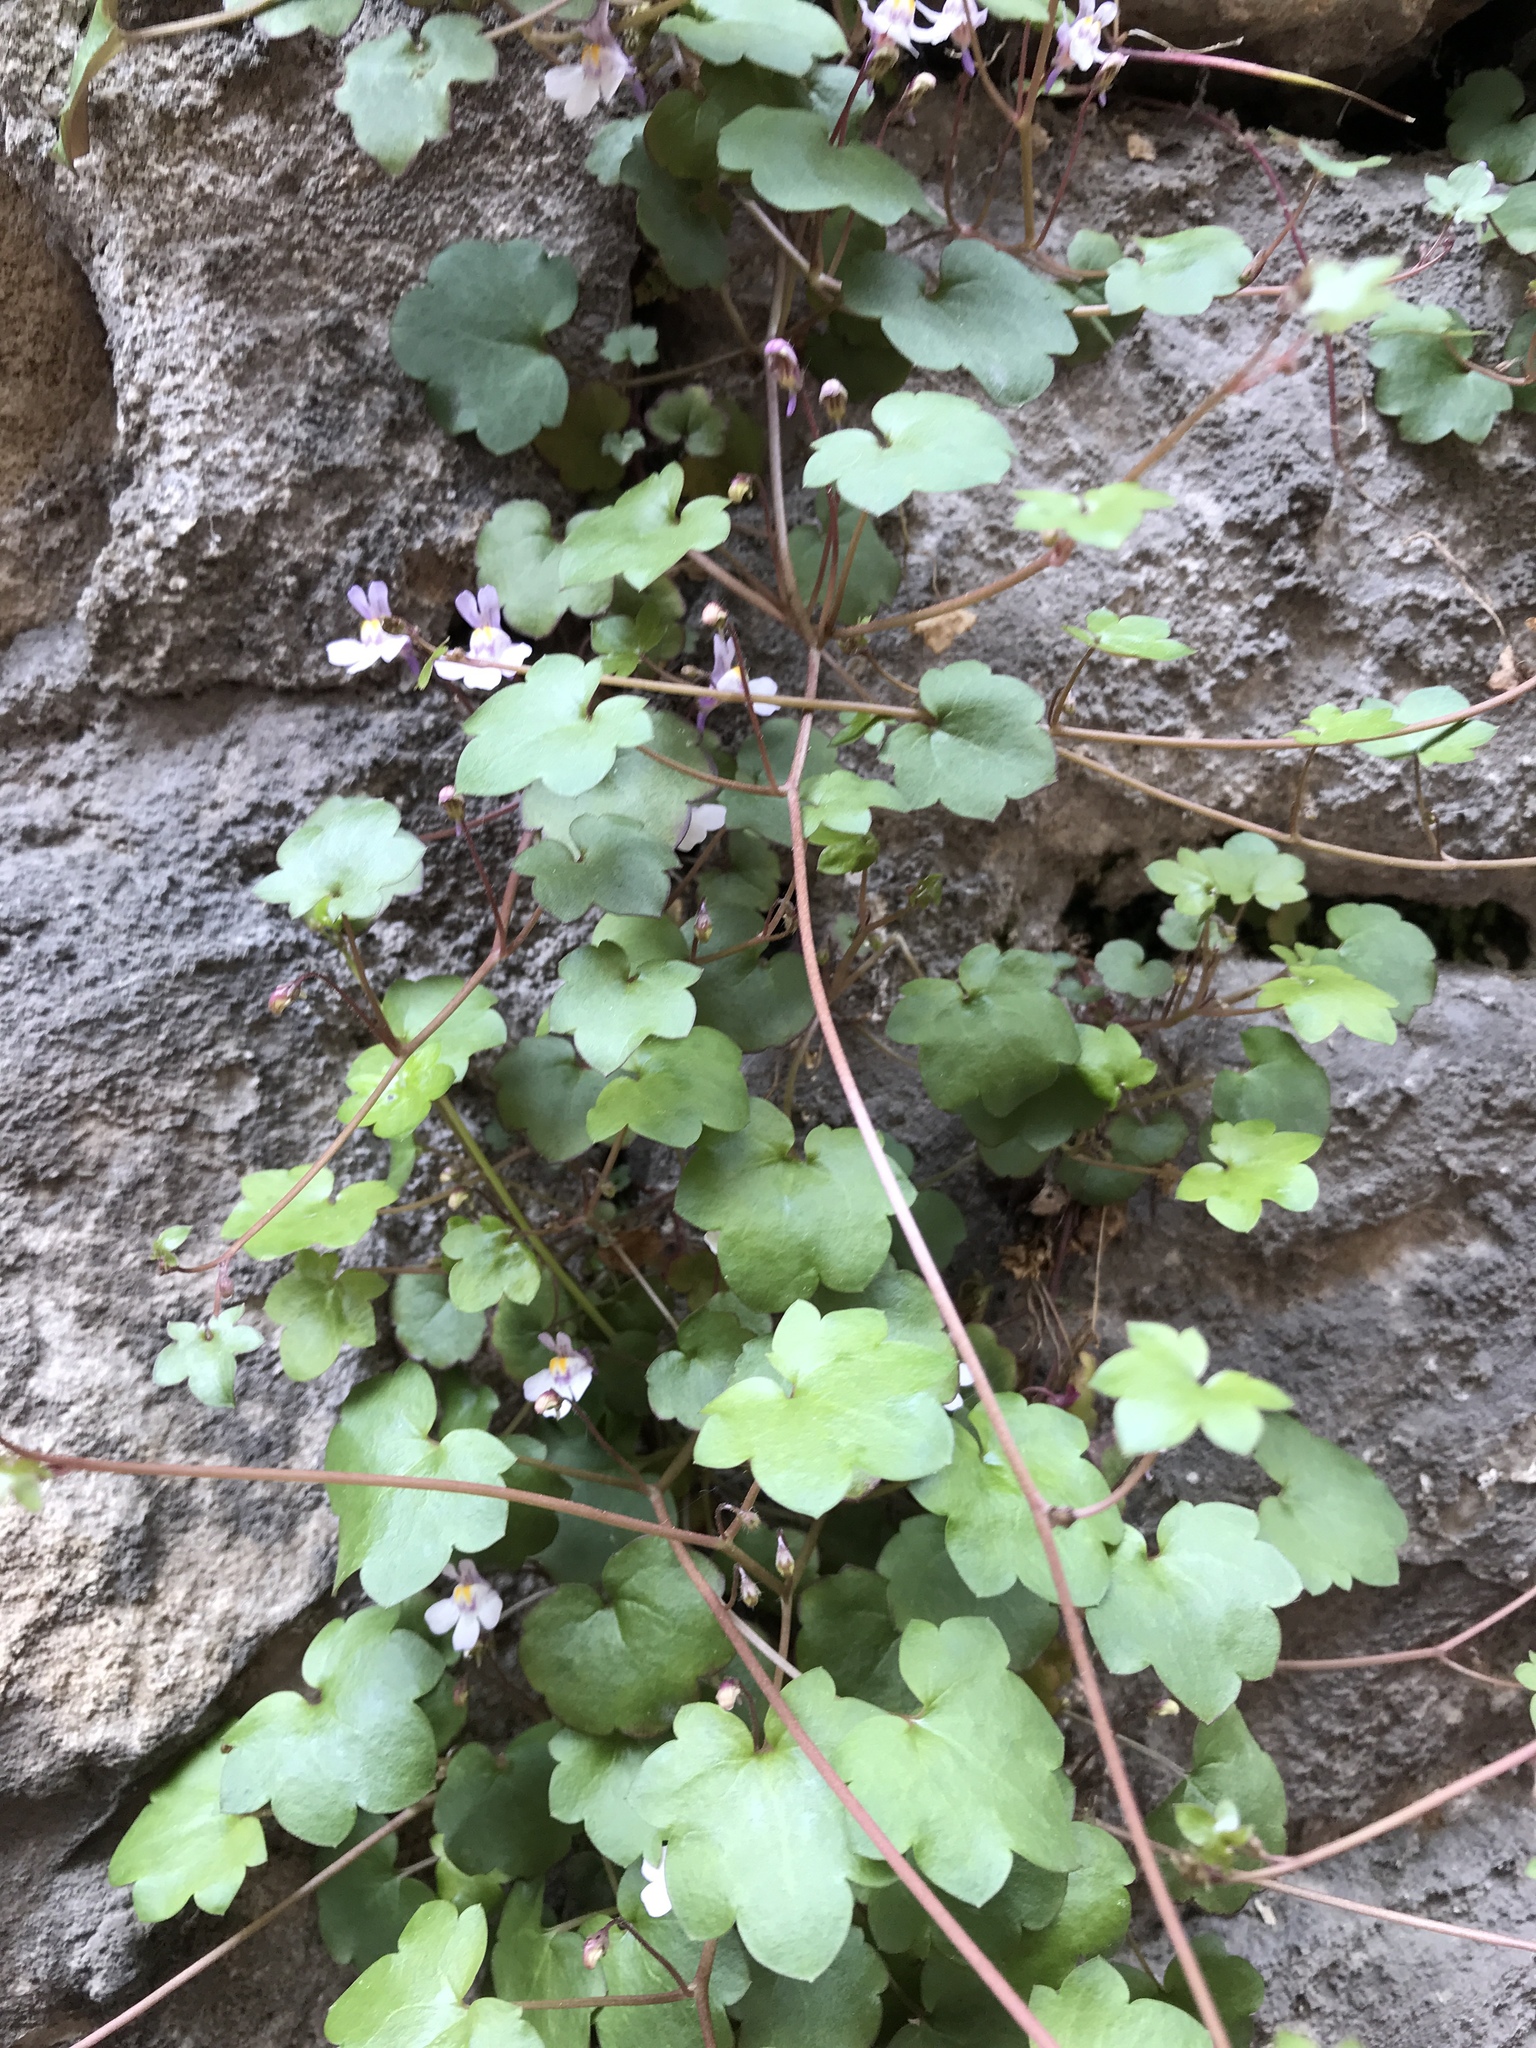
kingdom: Plantae
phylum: Tracheophyta
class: Magnoliopsida
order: Lamiales
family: Plantaginaceae
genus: Cymbalaria
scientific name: Cymbalaria muralis
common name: Ivy-leaved toadflax
